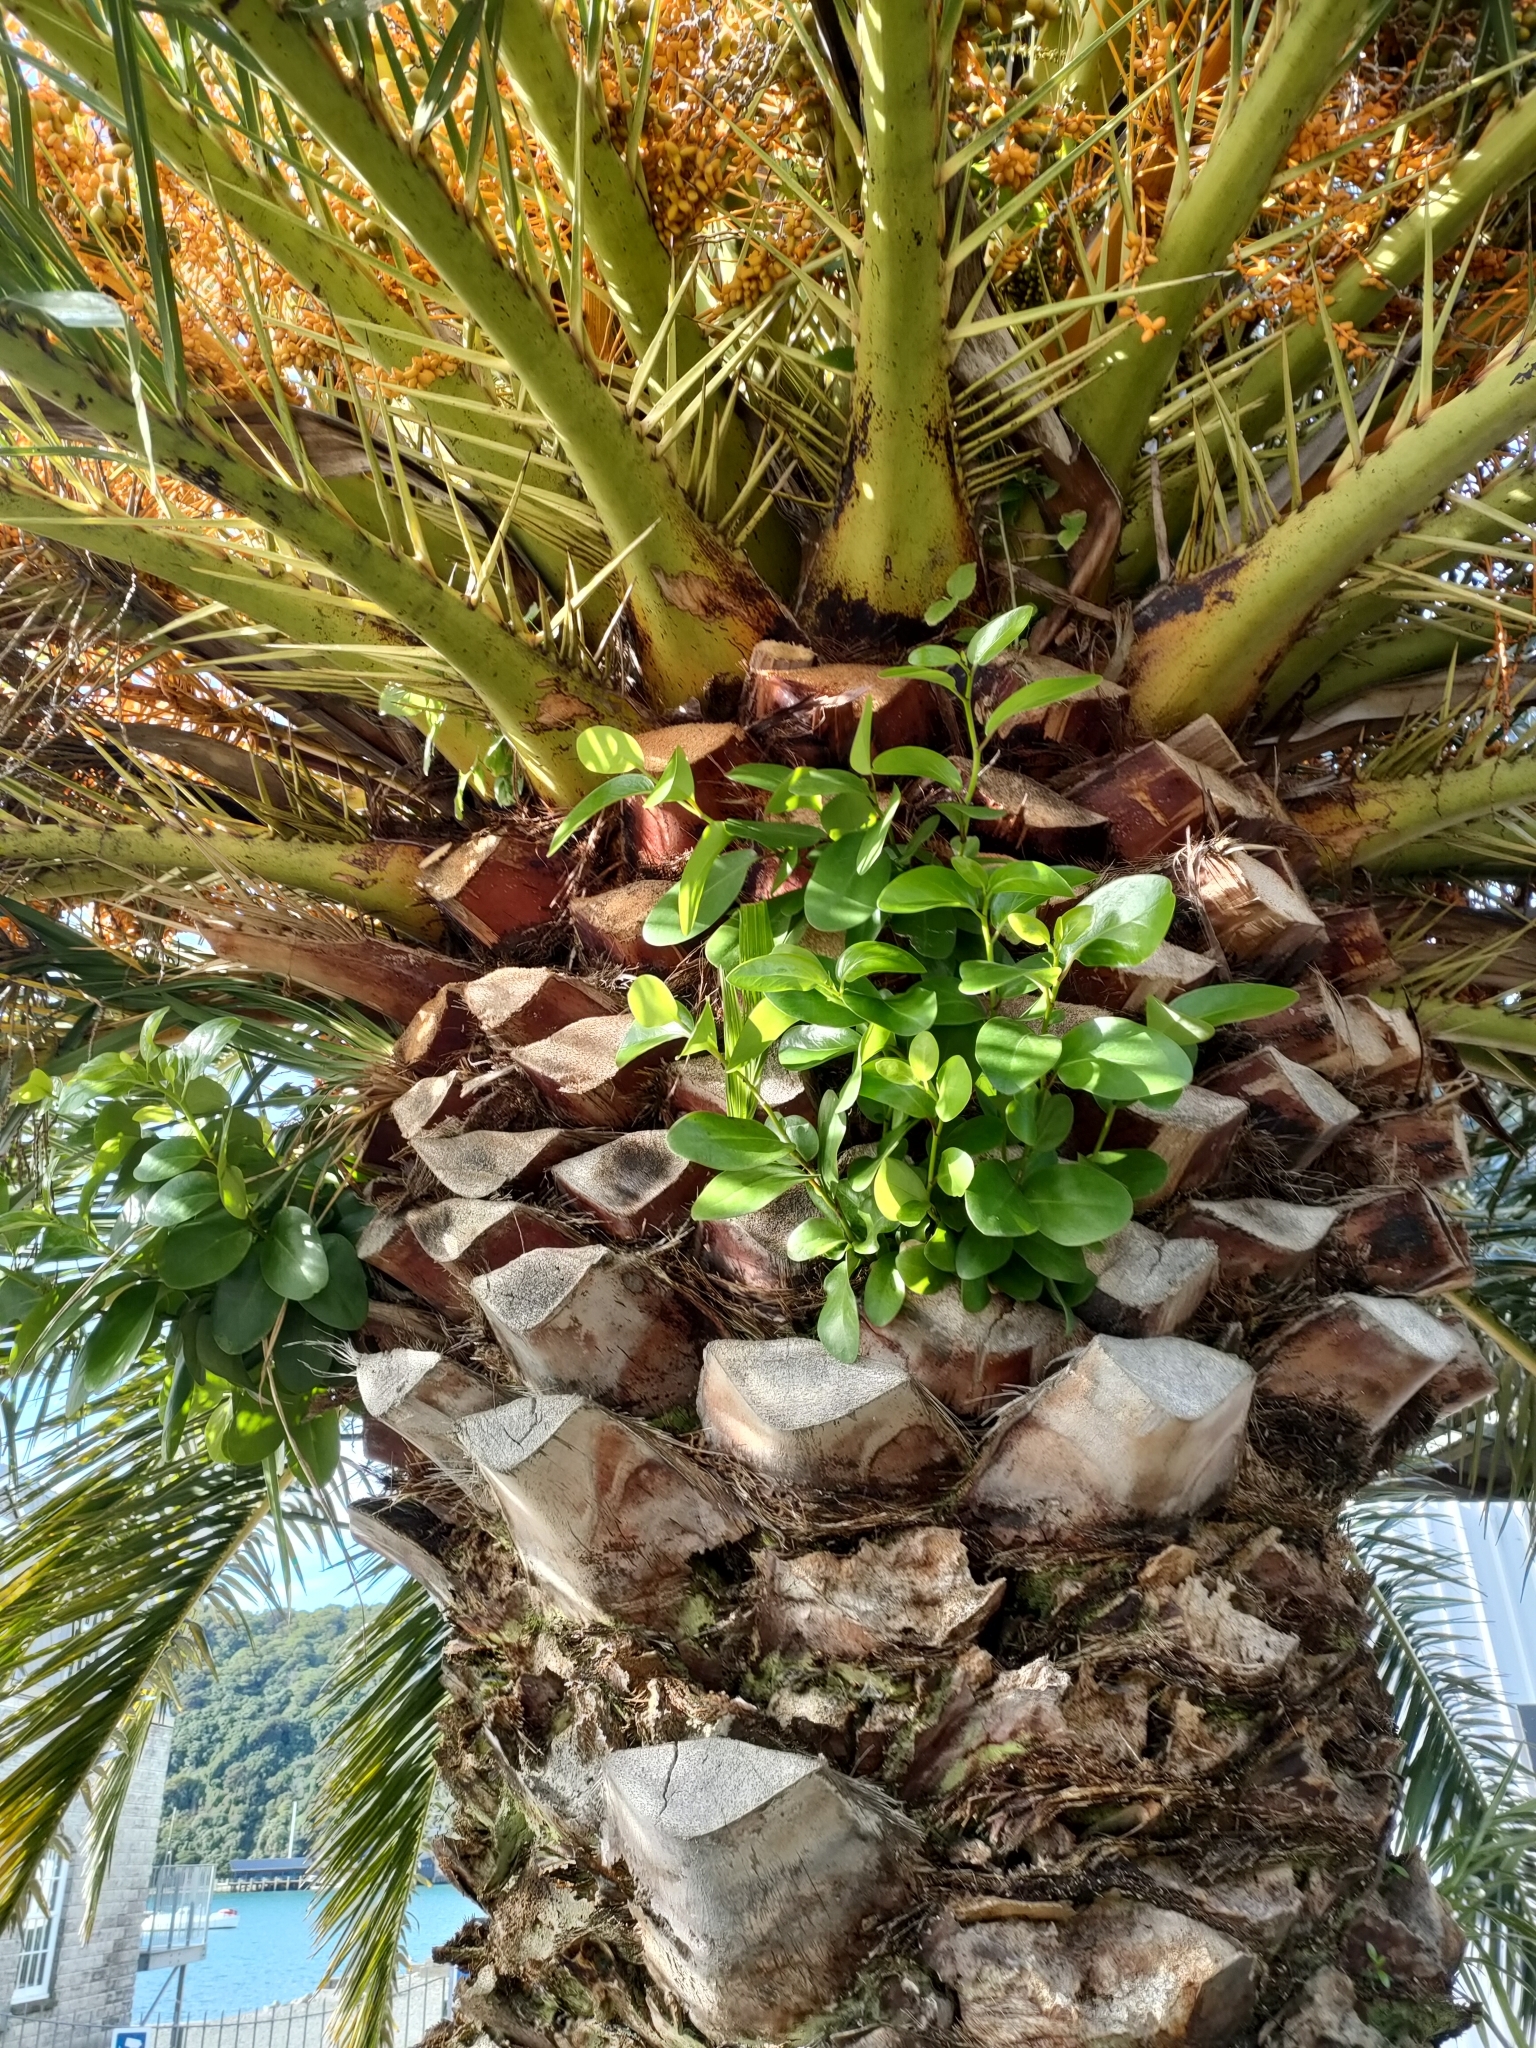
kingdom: Plantae
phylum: Tracheophyta
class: Magnoliopsida
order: Apiales
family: Griseliniaceae
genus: Griselinia
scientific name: Griselinia lucida
